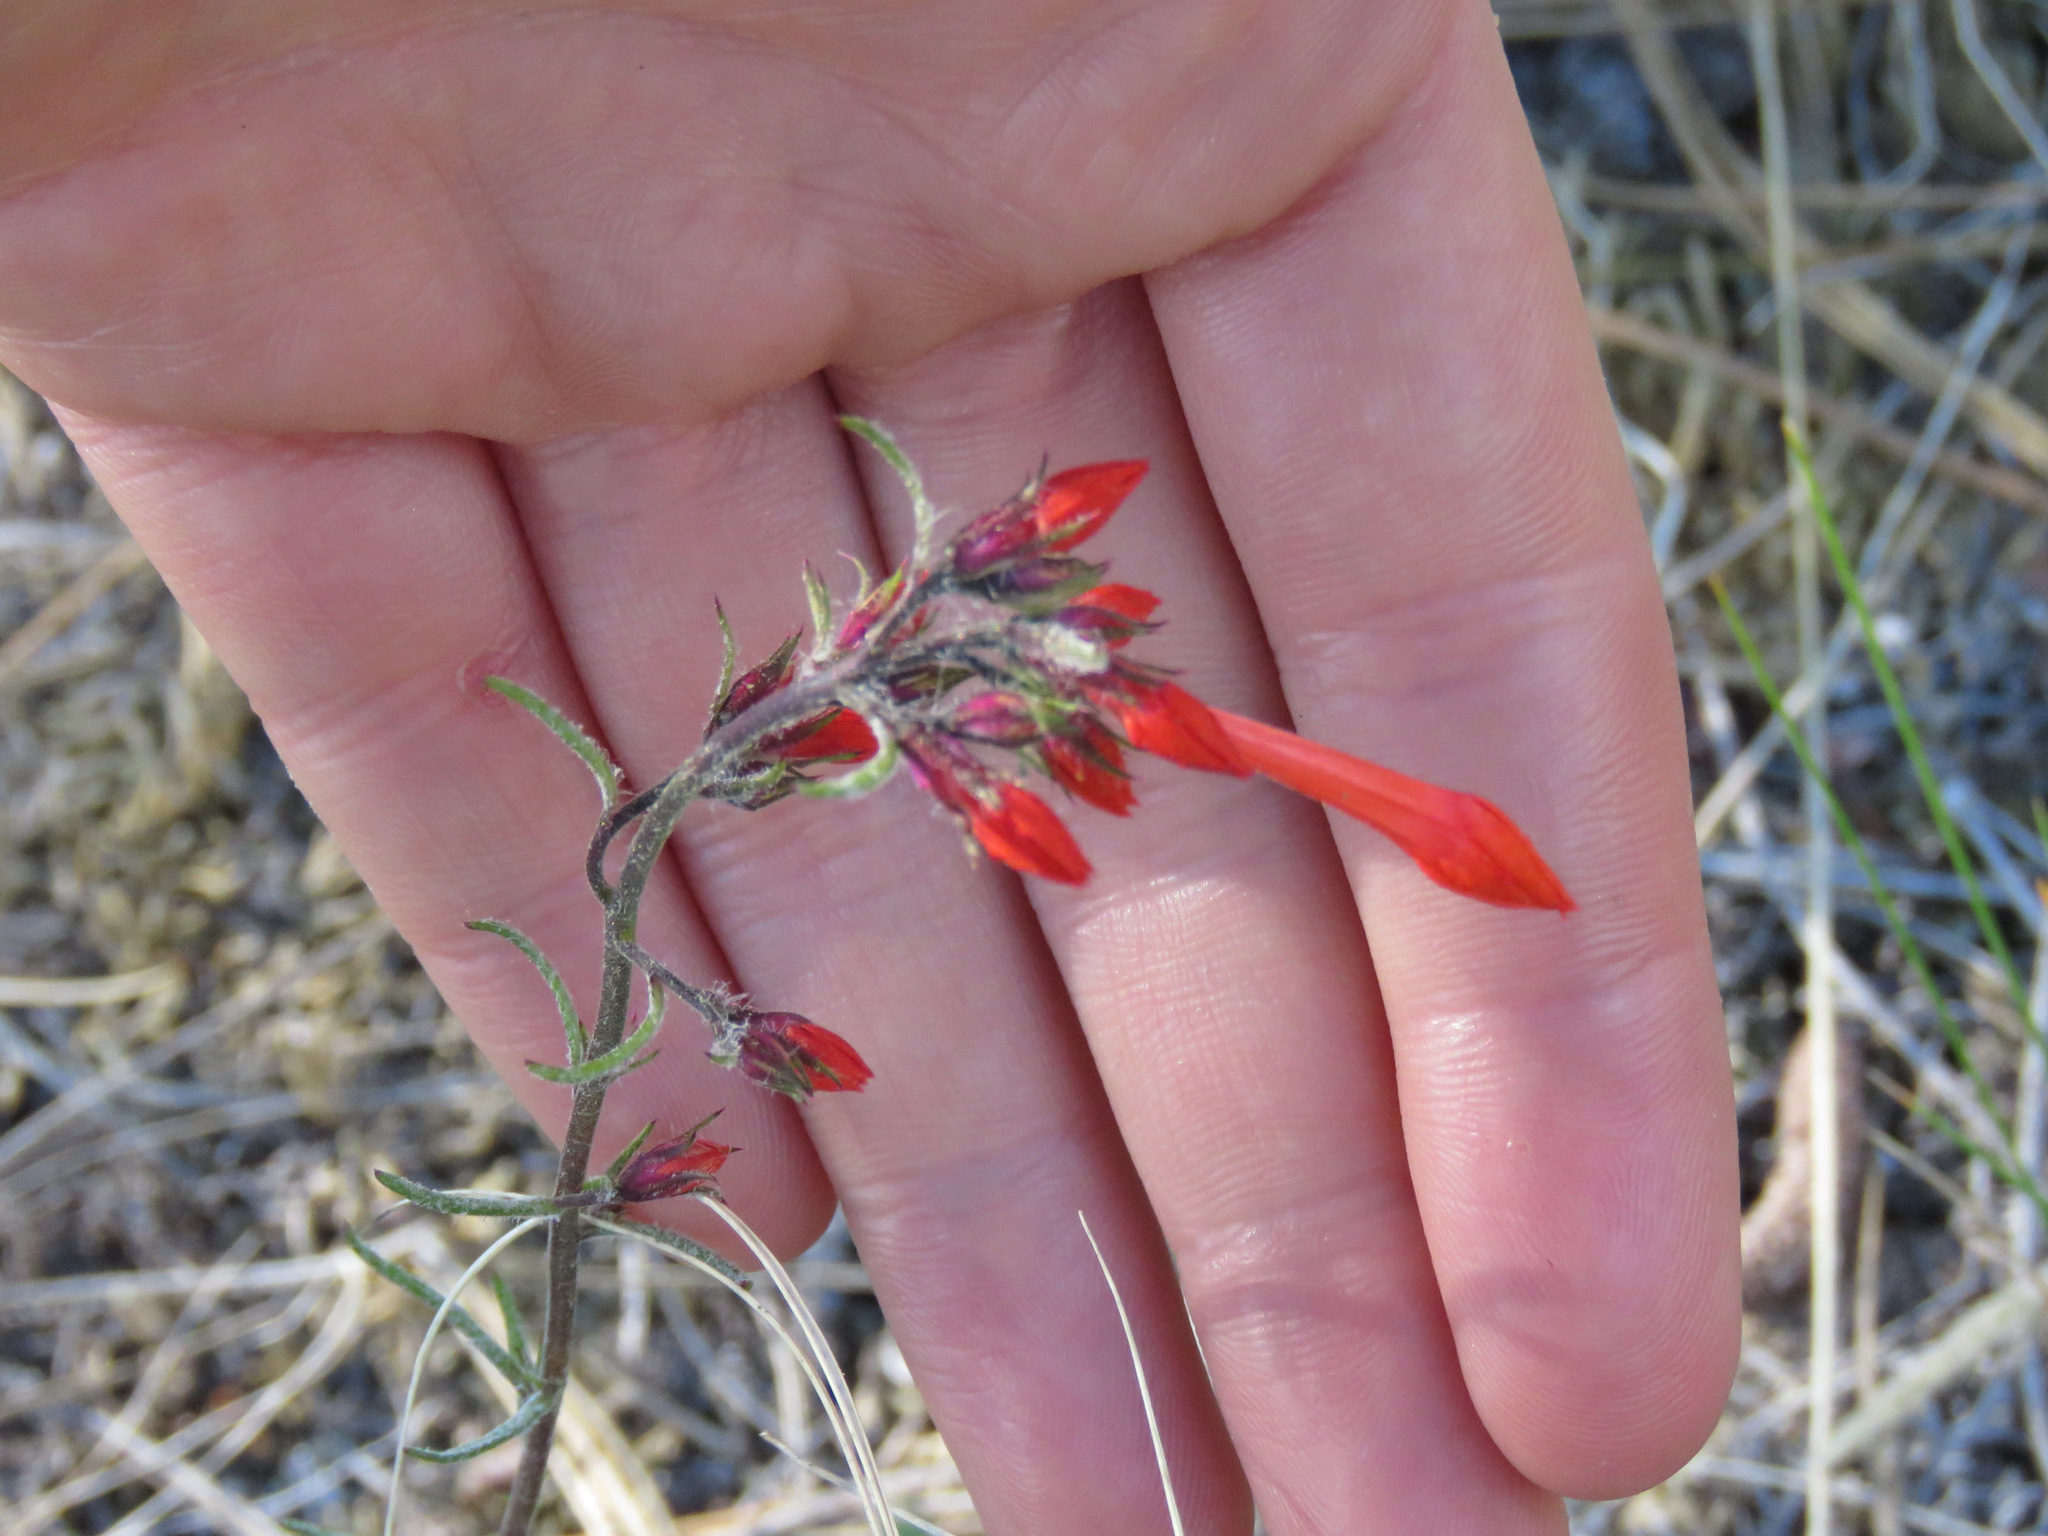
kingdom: Plantae
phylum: Tracheophyta
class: Magnoliopsida
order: Ericales
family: Polemoniaceae
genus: Ipomopsis
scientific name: Ipomopsis aggregata
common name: Scarlet gilia
